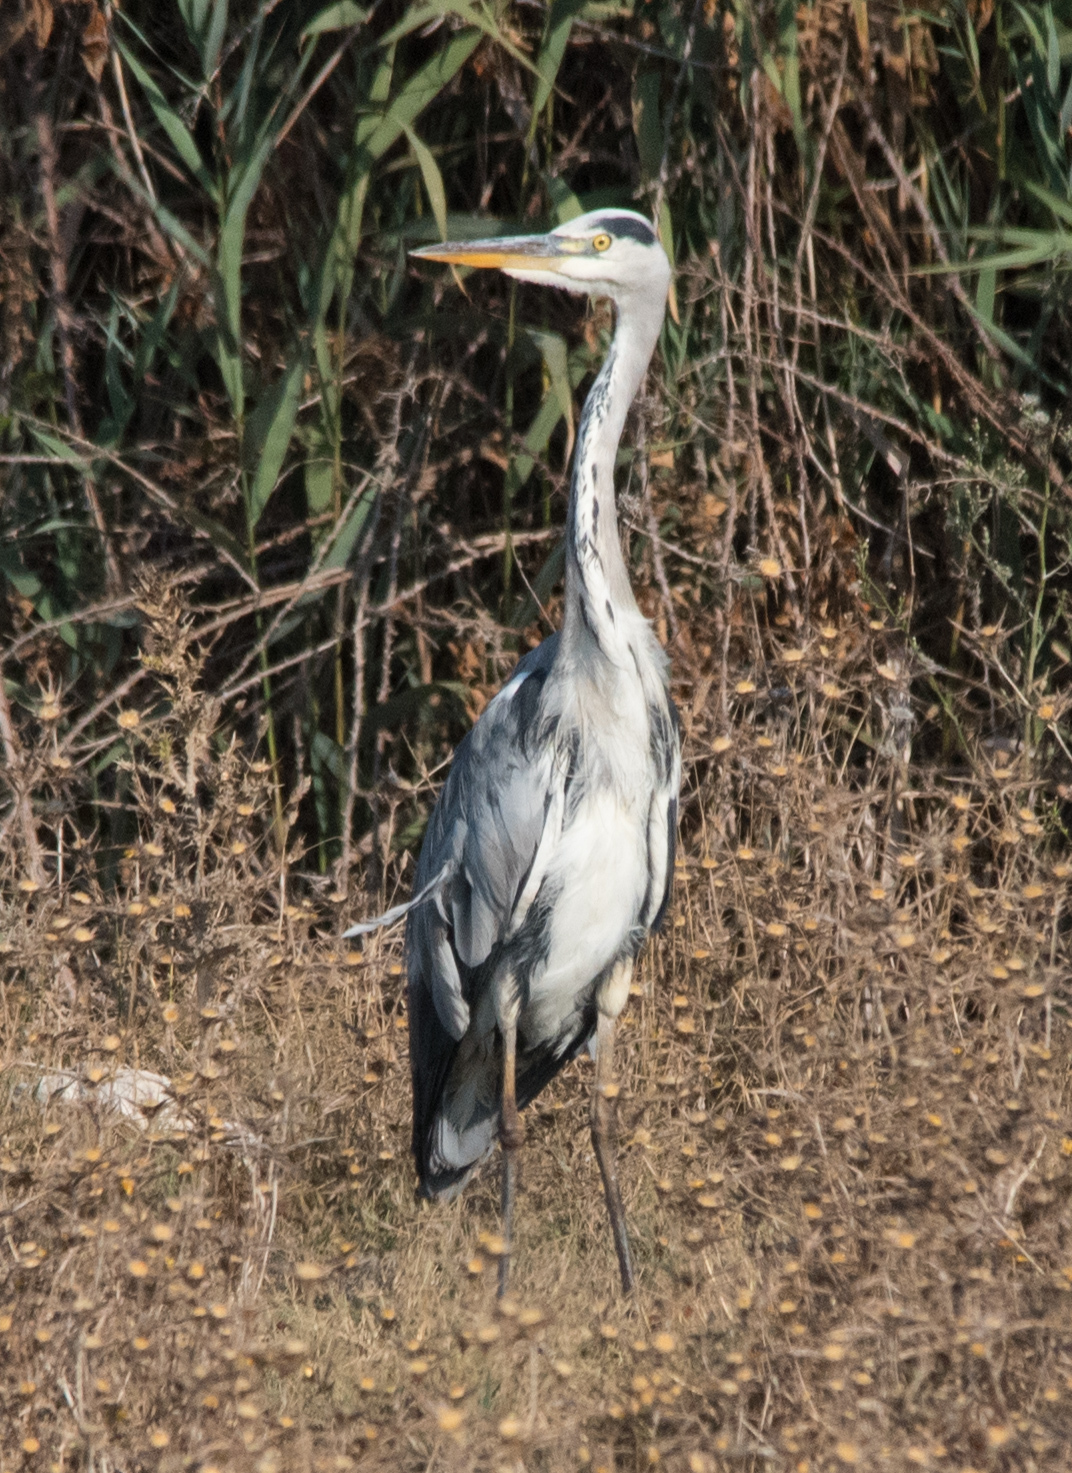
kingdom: Animalia
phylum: Chordata
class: Aves
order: Pelecaniformes
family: Ardeidae
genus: Ardea
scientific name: Ardea cinerea
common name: Grey heron
